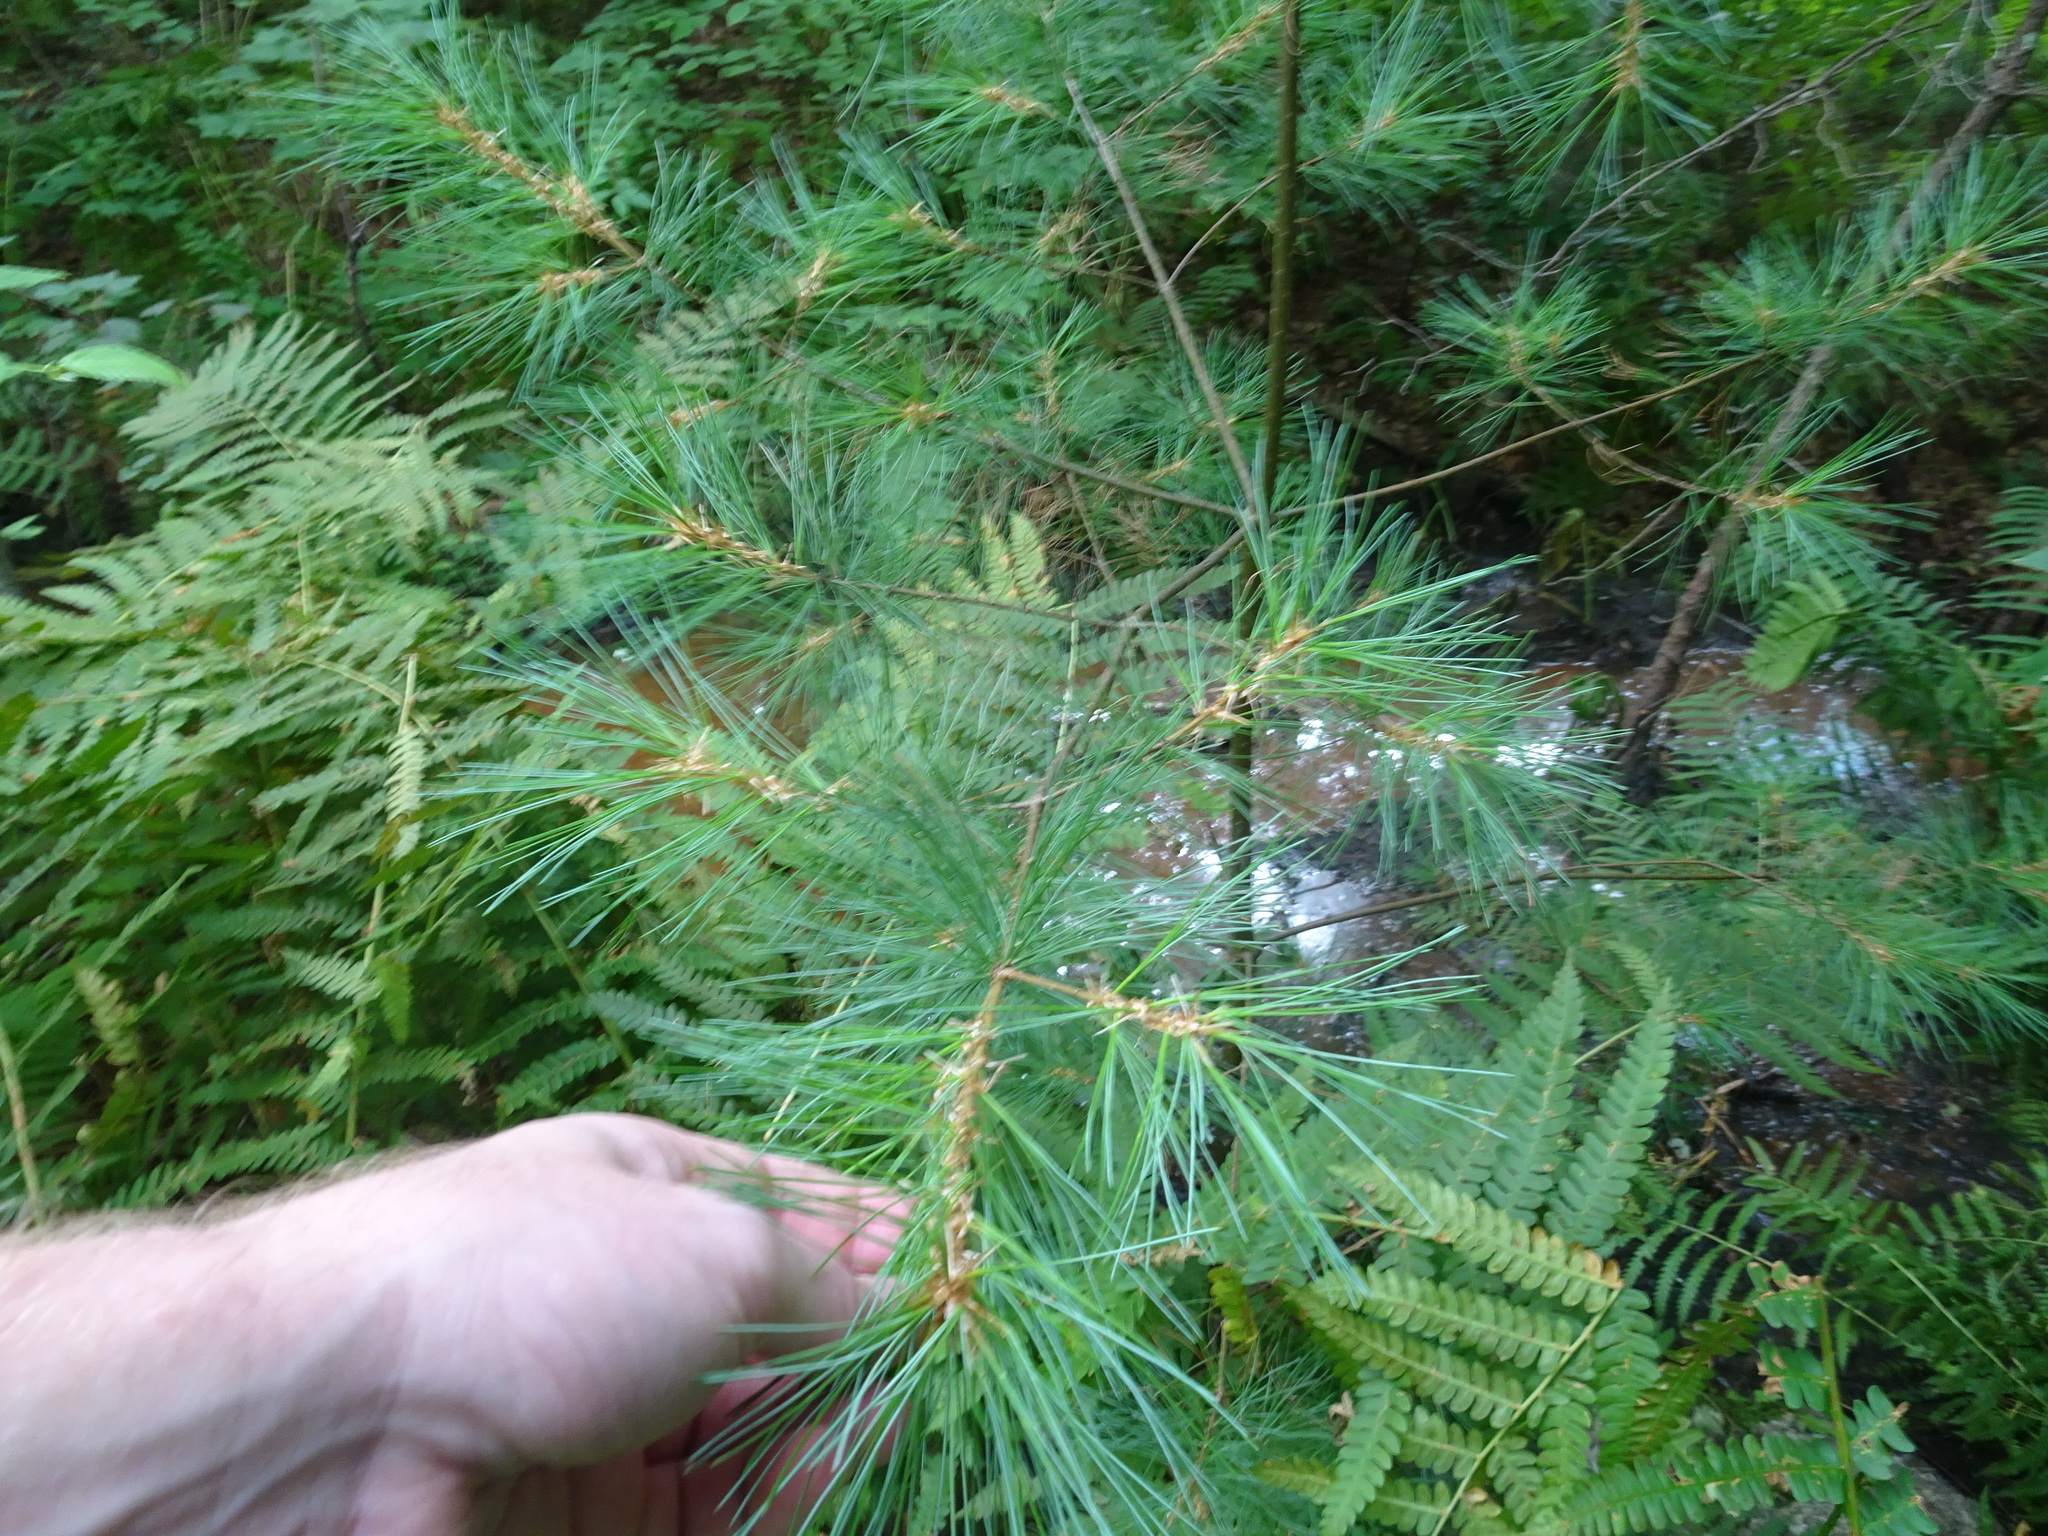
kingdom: Plantae
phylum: Tracheophyta
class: Pinopsida
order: Pinales
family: Pinaceae
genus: Pinus
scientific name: Pinus strobus
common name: Weymouth pine
